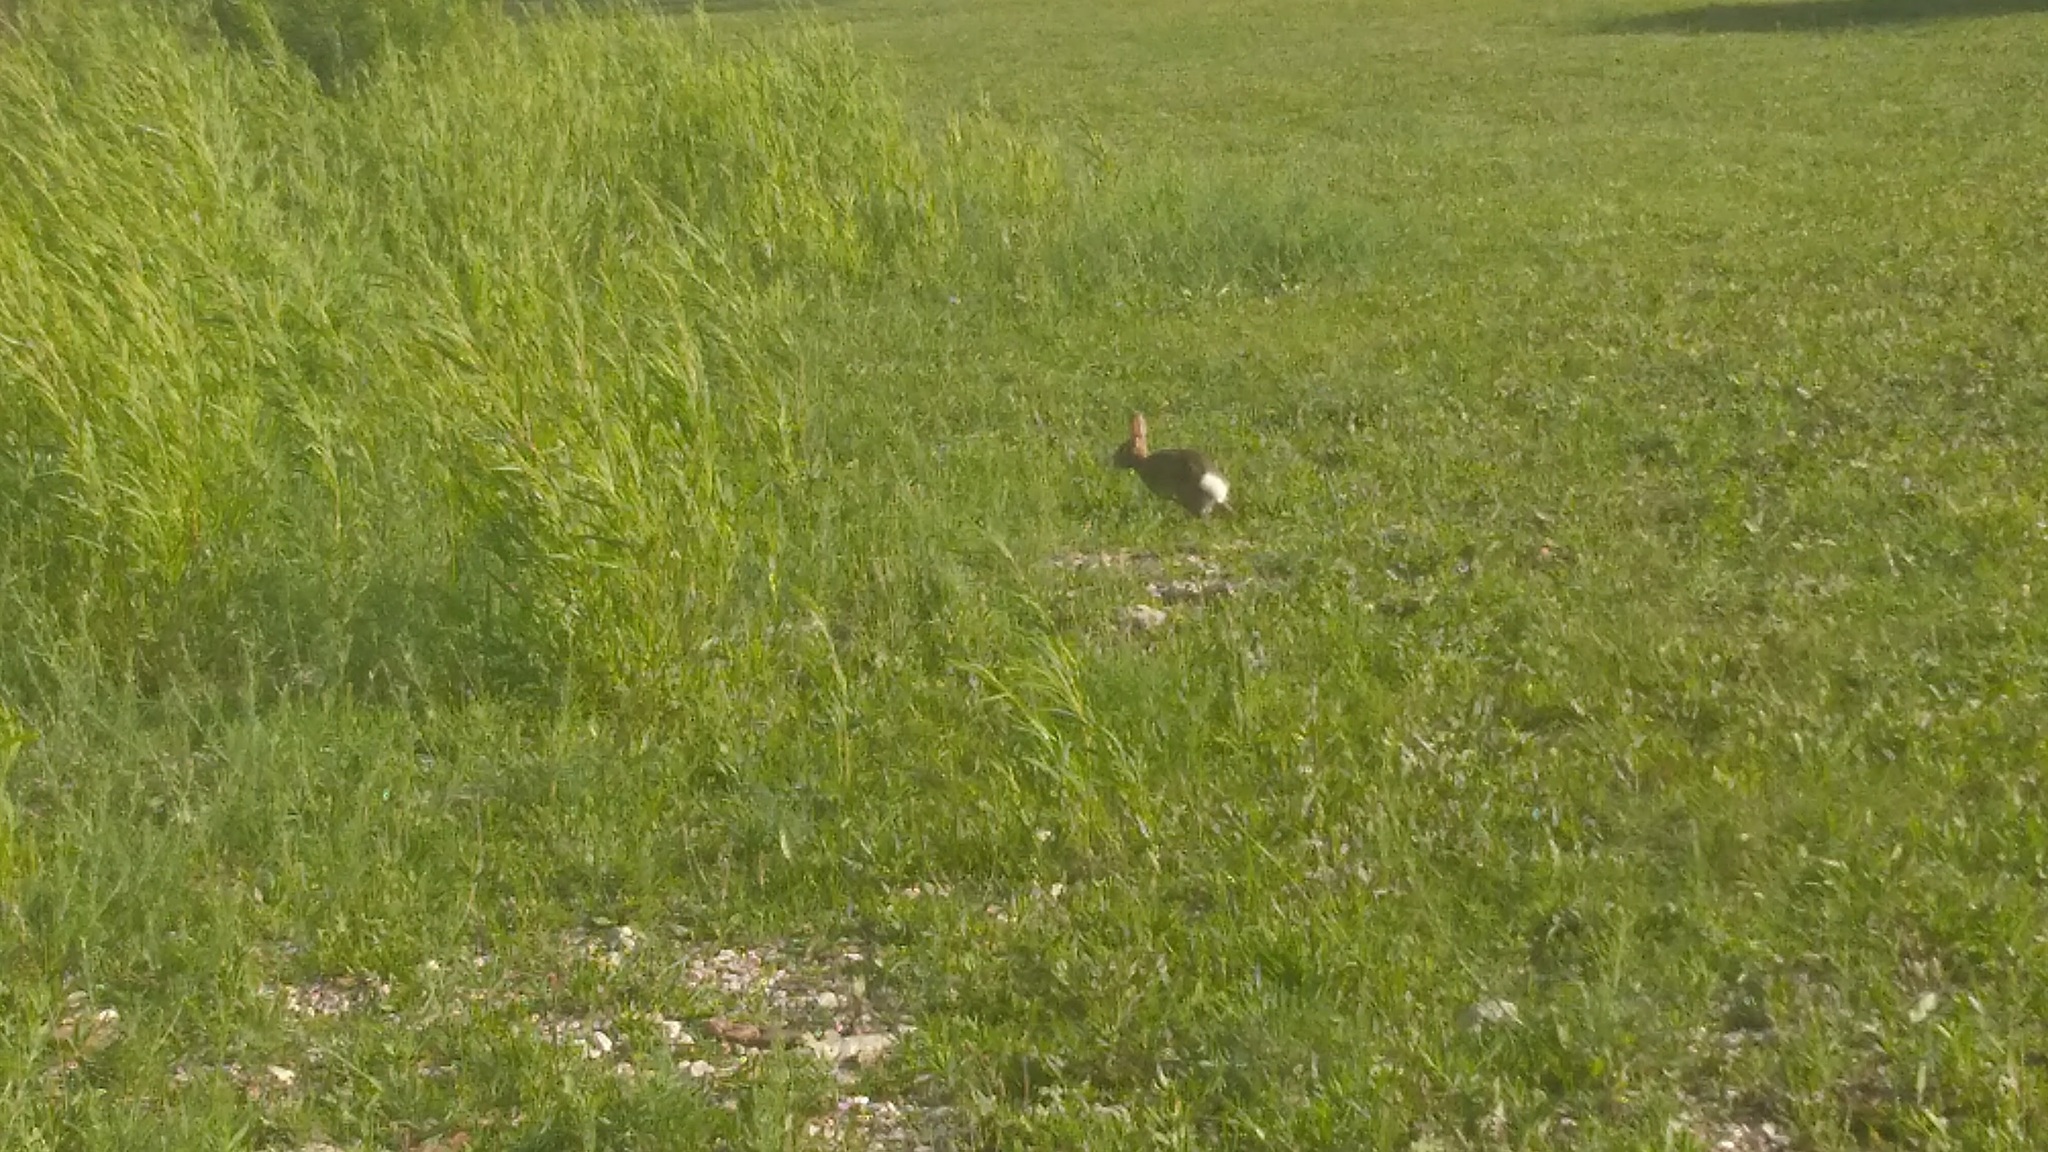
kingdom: Animalia
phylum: Chordata
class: Mammalia
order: Lagomorpha
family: Leporidae
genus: Sylvilagus
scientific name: Sylvilagus floridanus
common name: Eastern cottontail
